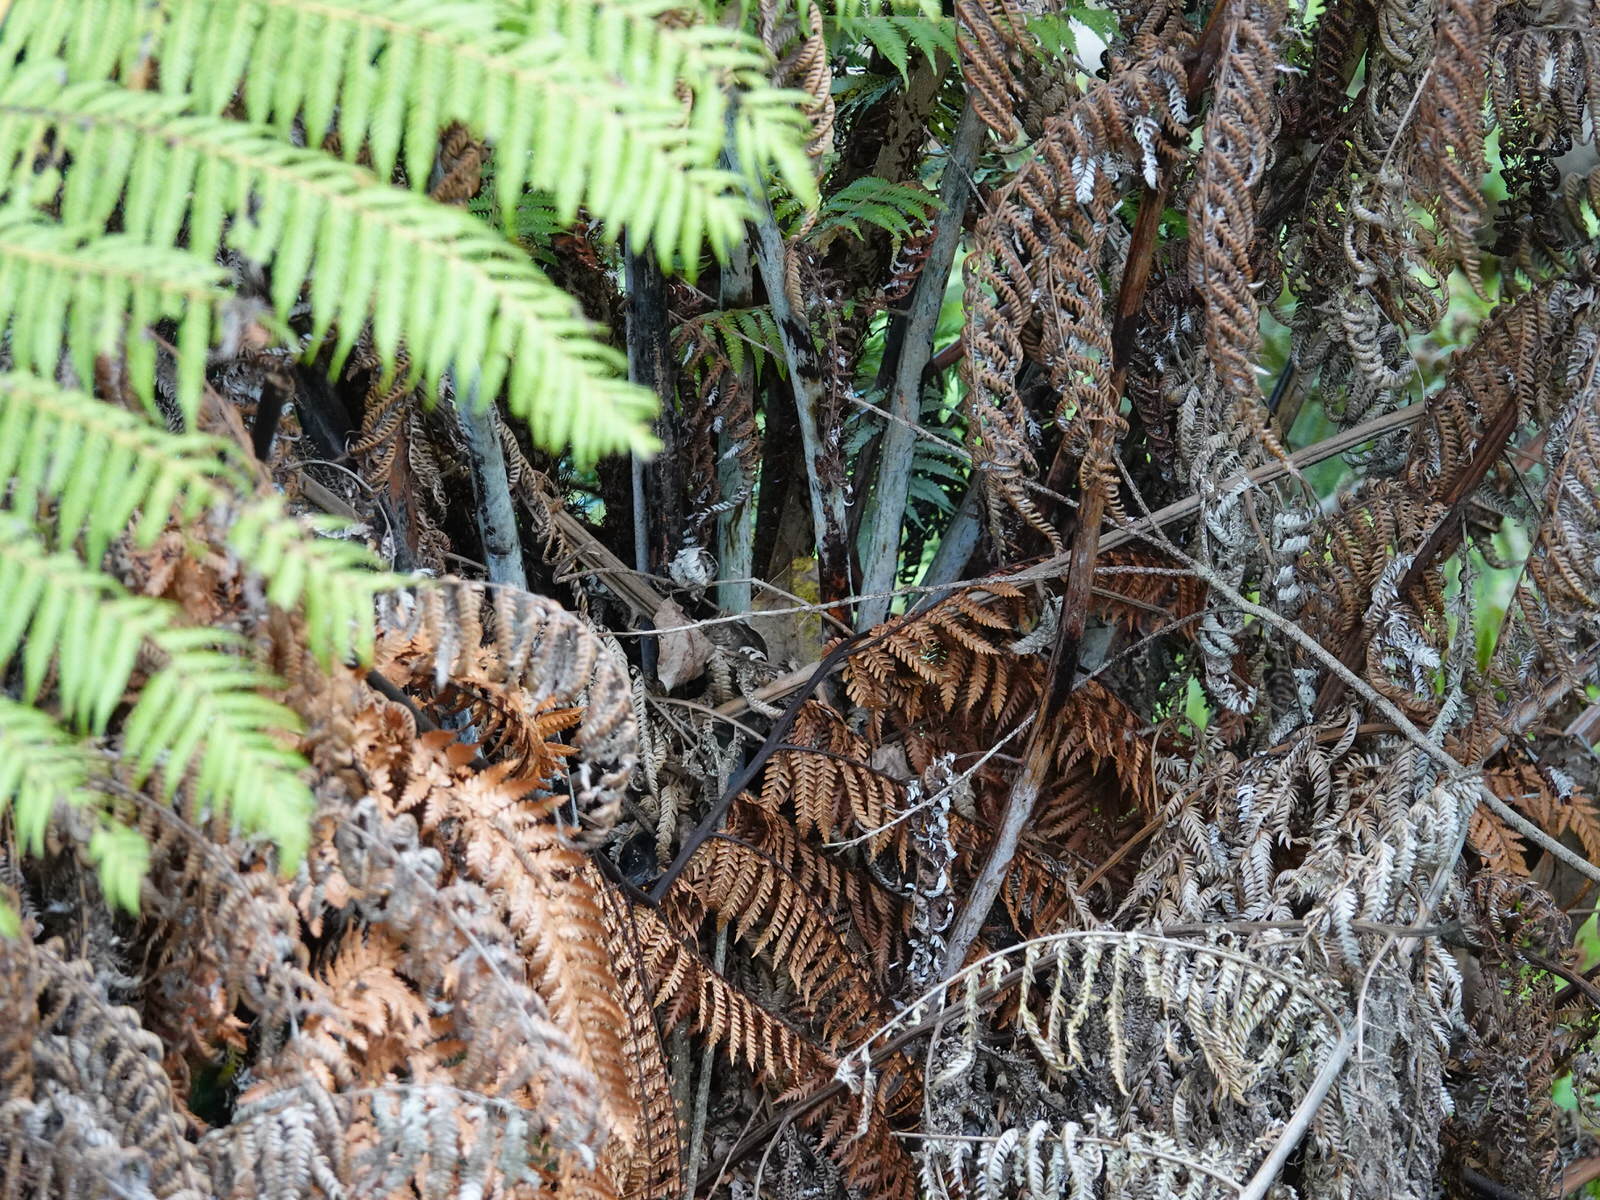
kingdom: Plantae
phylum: Tracheophyta
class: Polypodiopsida
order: Cyatheales
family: Cyatheaceae
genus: Alsophila
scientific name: Alsophila dealbata
